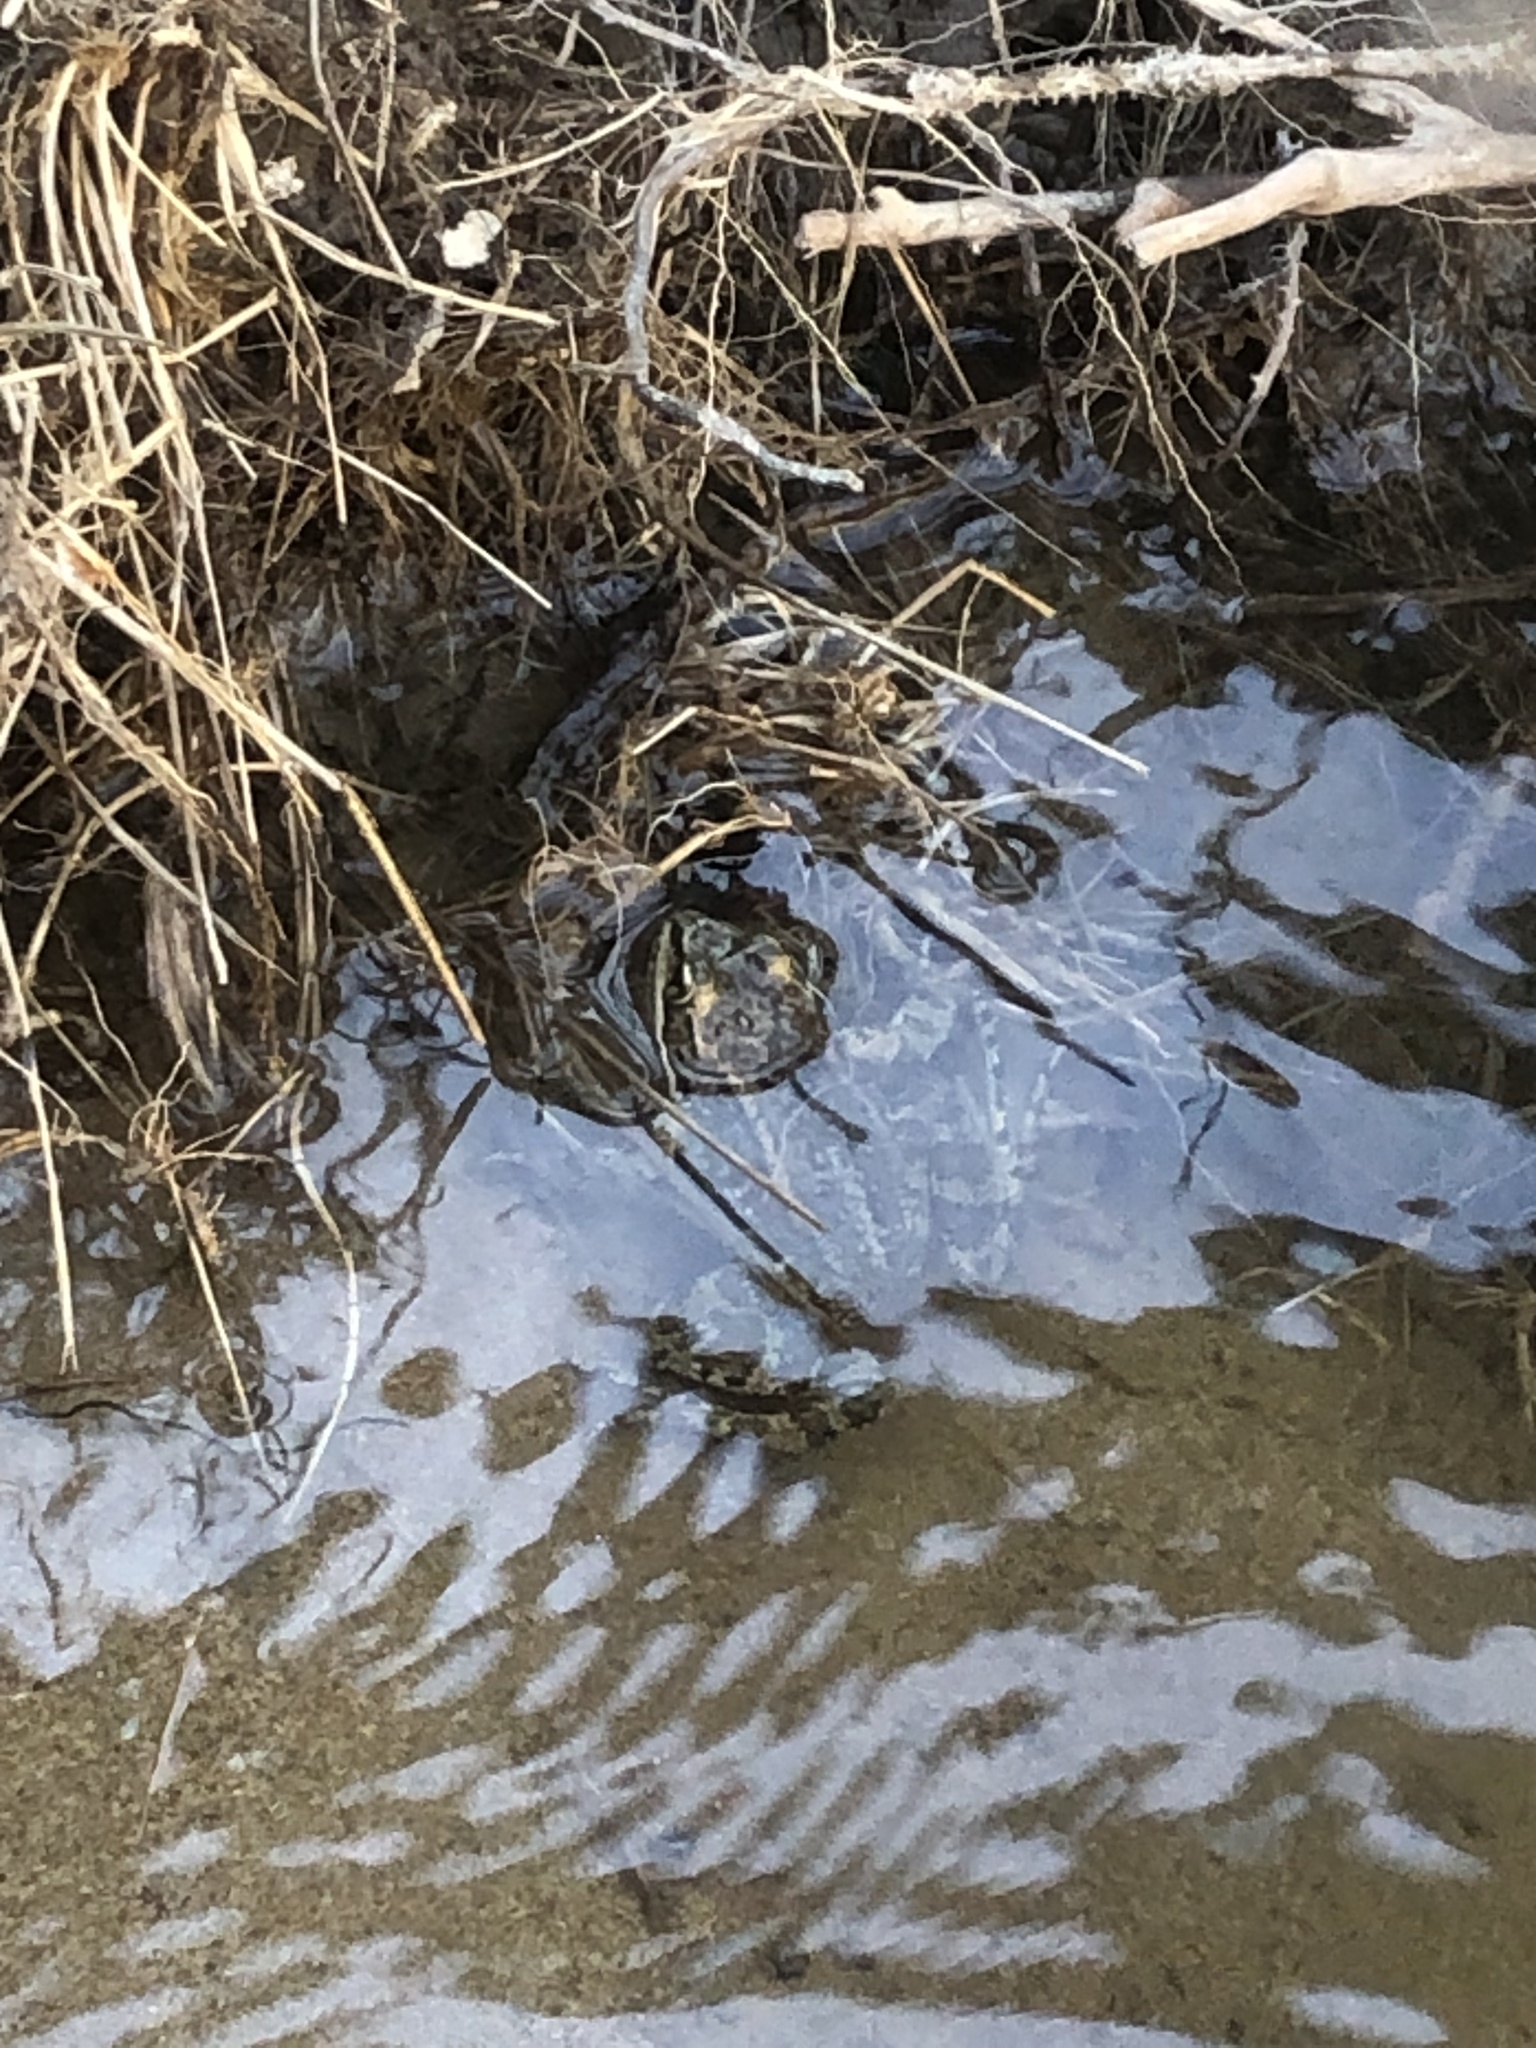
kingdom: Animalia
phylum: Chordata
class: Amphibia
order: Anura
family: Ranidae
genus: Rana
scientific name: Rana luteiventris
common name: Columbia spotted frog
